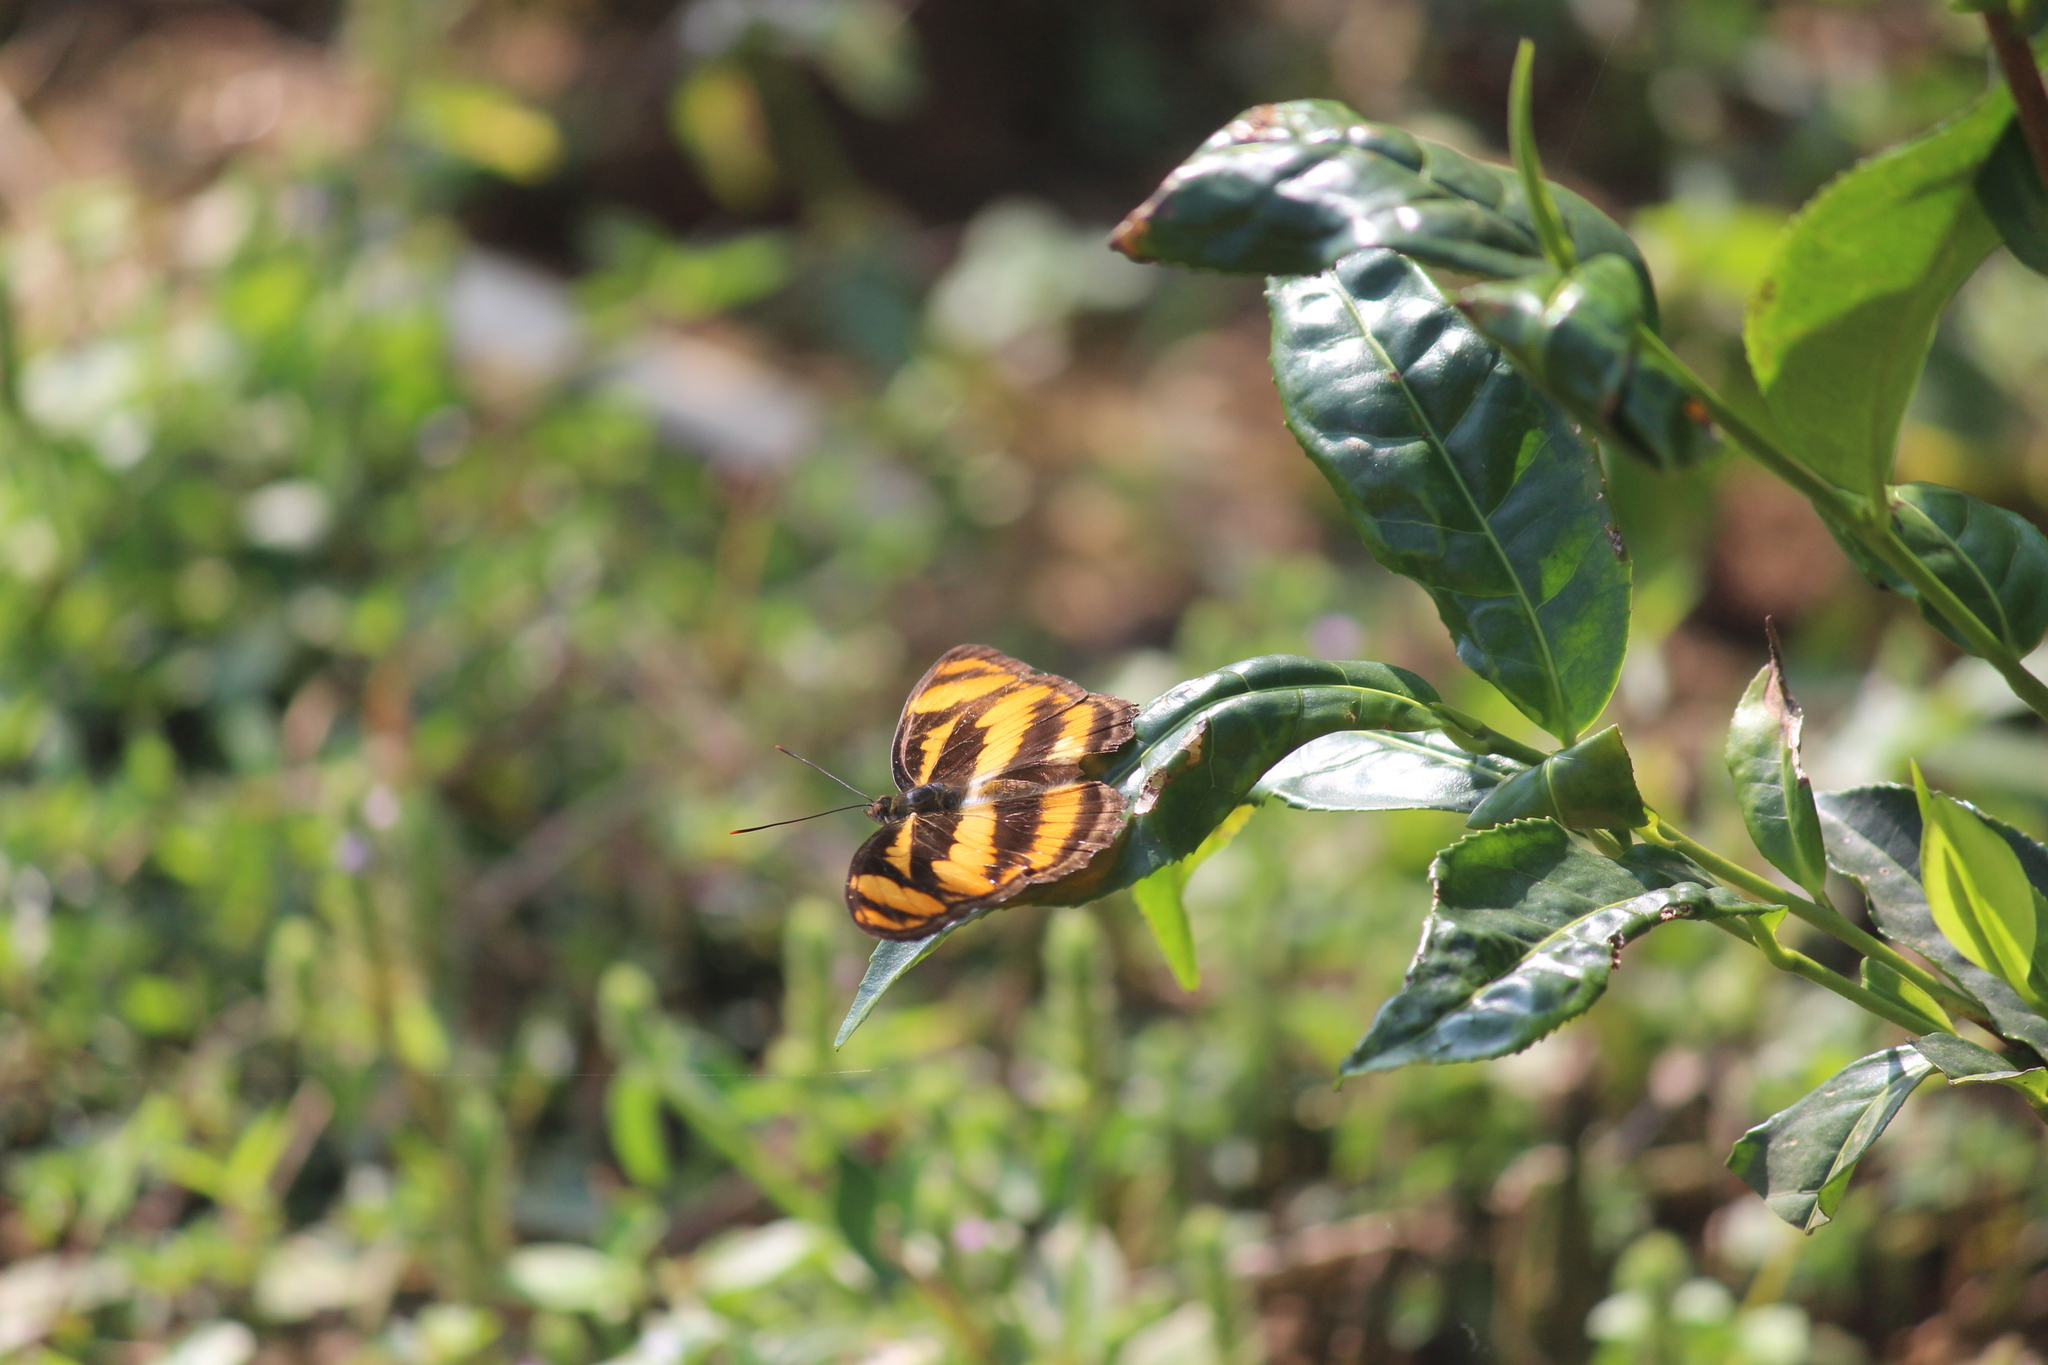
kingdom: Animalia
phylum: Arthropoda
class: Insecta
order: Lepidoptera
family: Nymphalidae
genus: Parathyma
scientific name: Parathyma nefte
